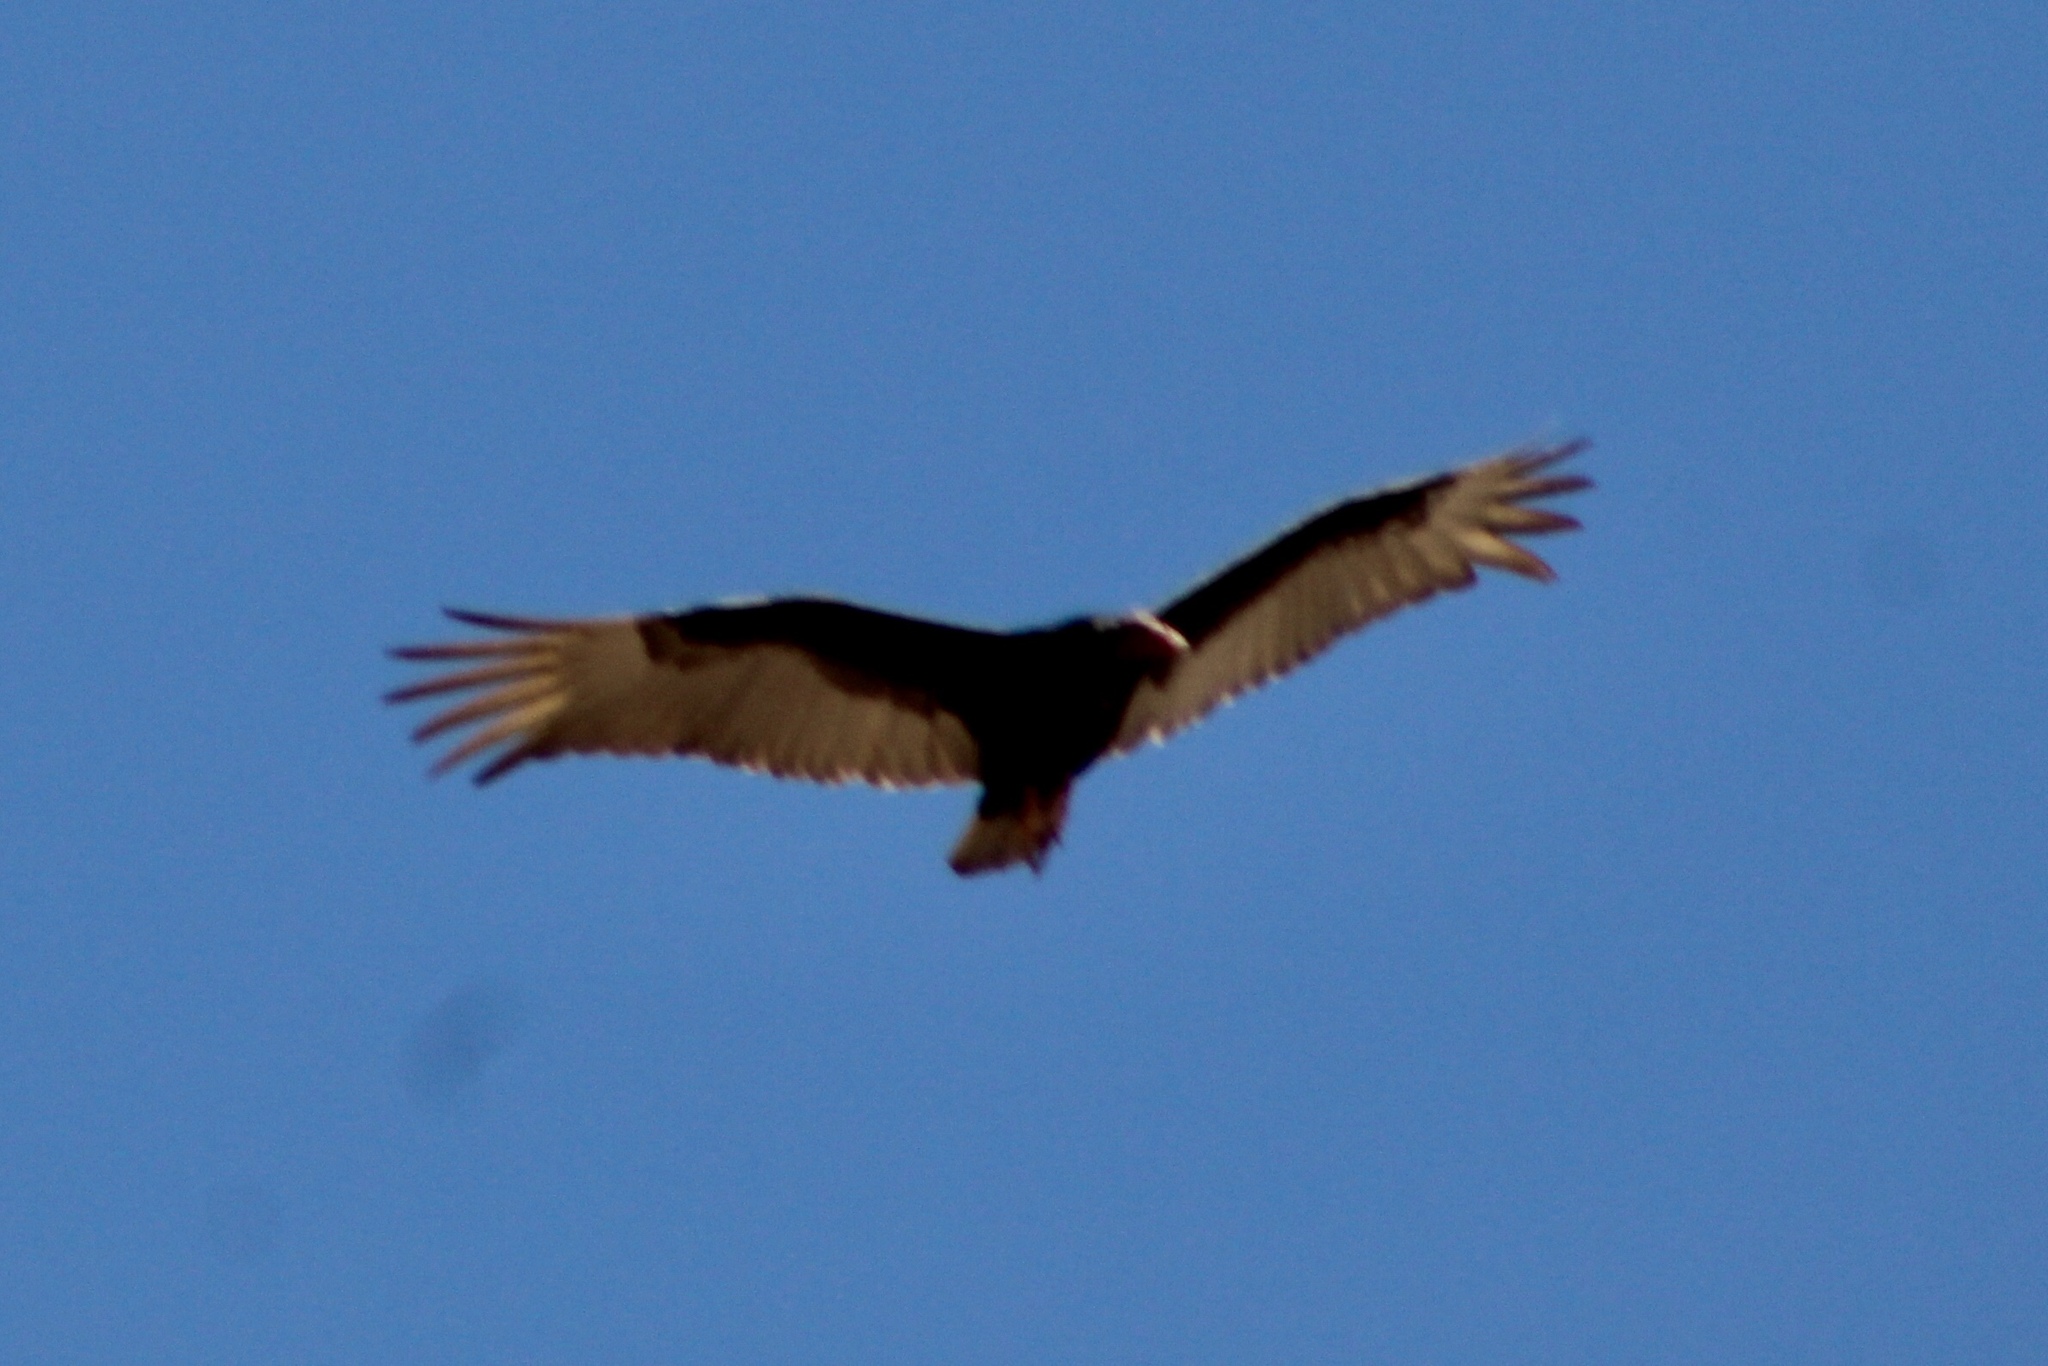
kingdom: Animalia
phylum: Chordata
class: Aves
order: Accipitriformes
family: Cathartidae
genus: Cathartes
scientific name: Cathartes aura
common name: Turkey vulture
